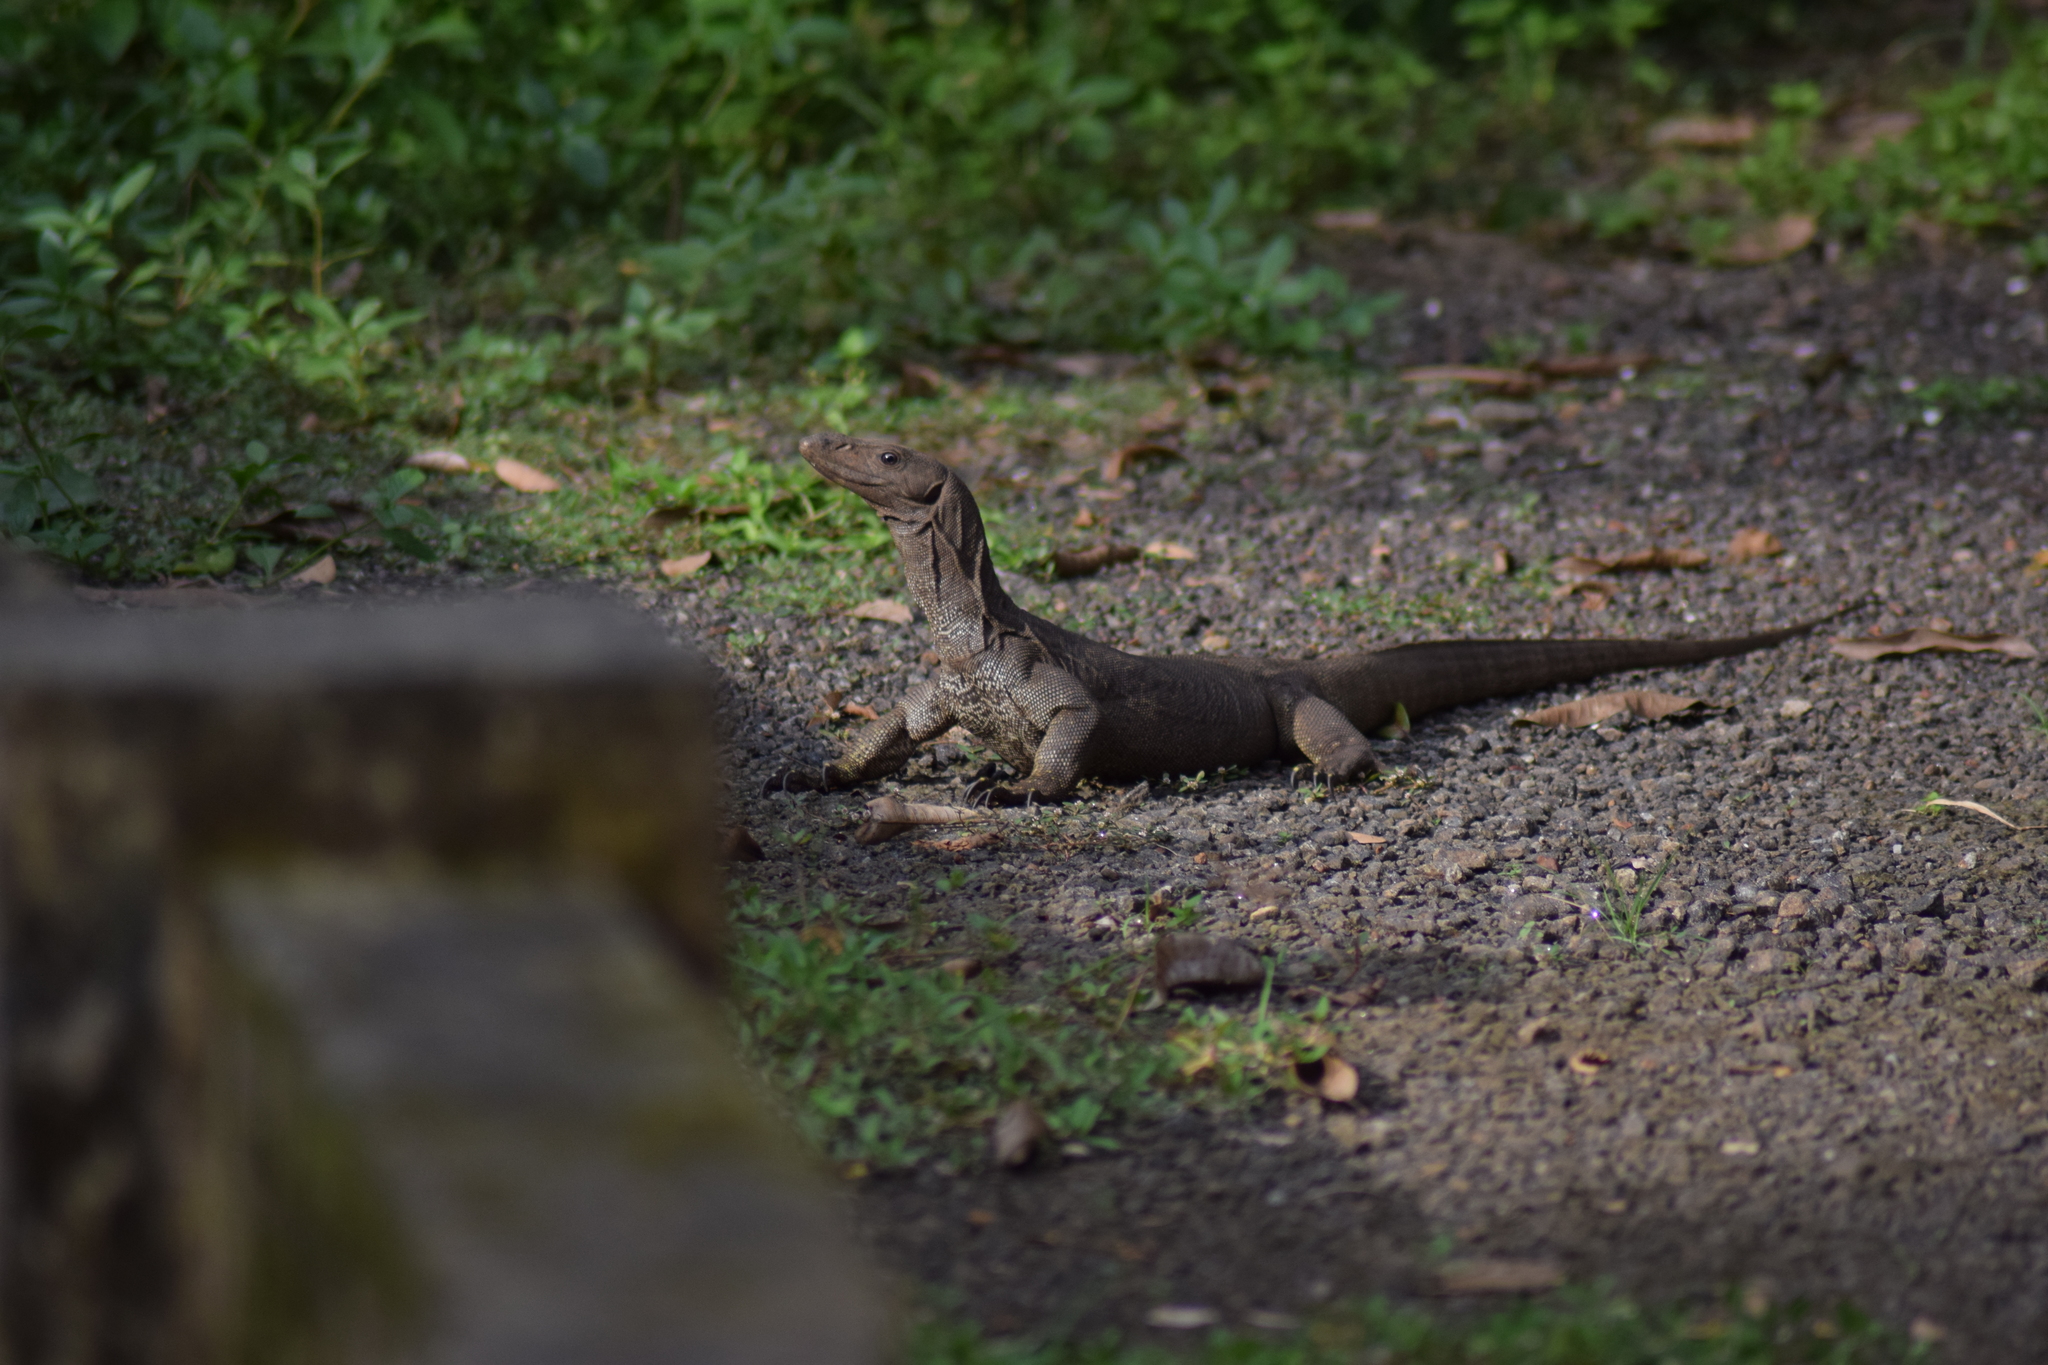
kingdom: Animalia
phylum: Chordata
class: Squamata
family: Varanidae
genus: Varanus
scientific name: Varanus bengalensis
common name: Bengal monitor
